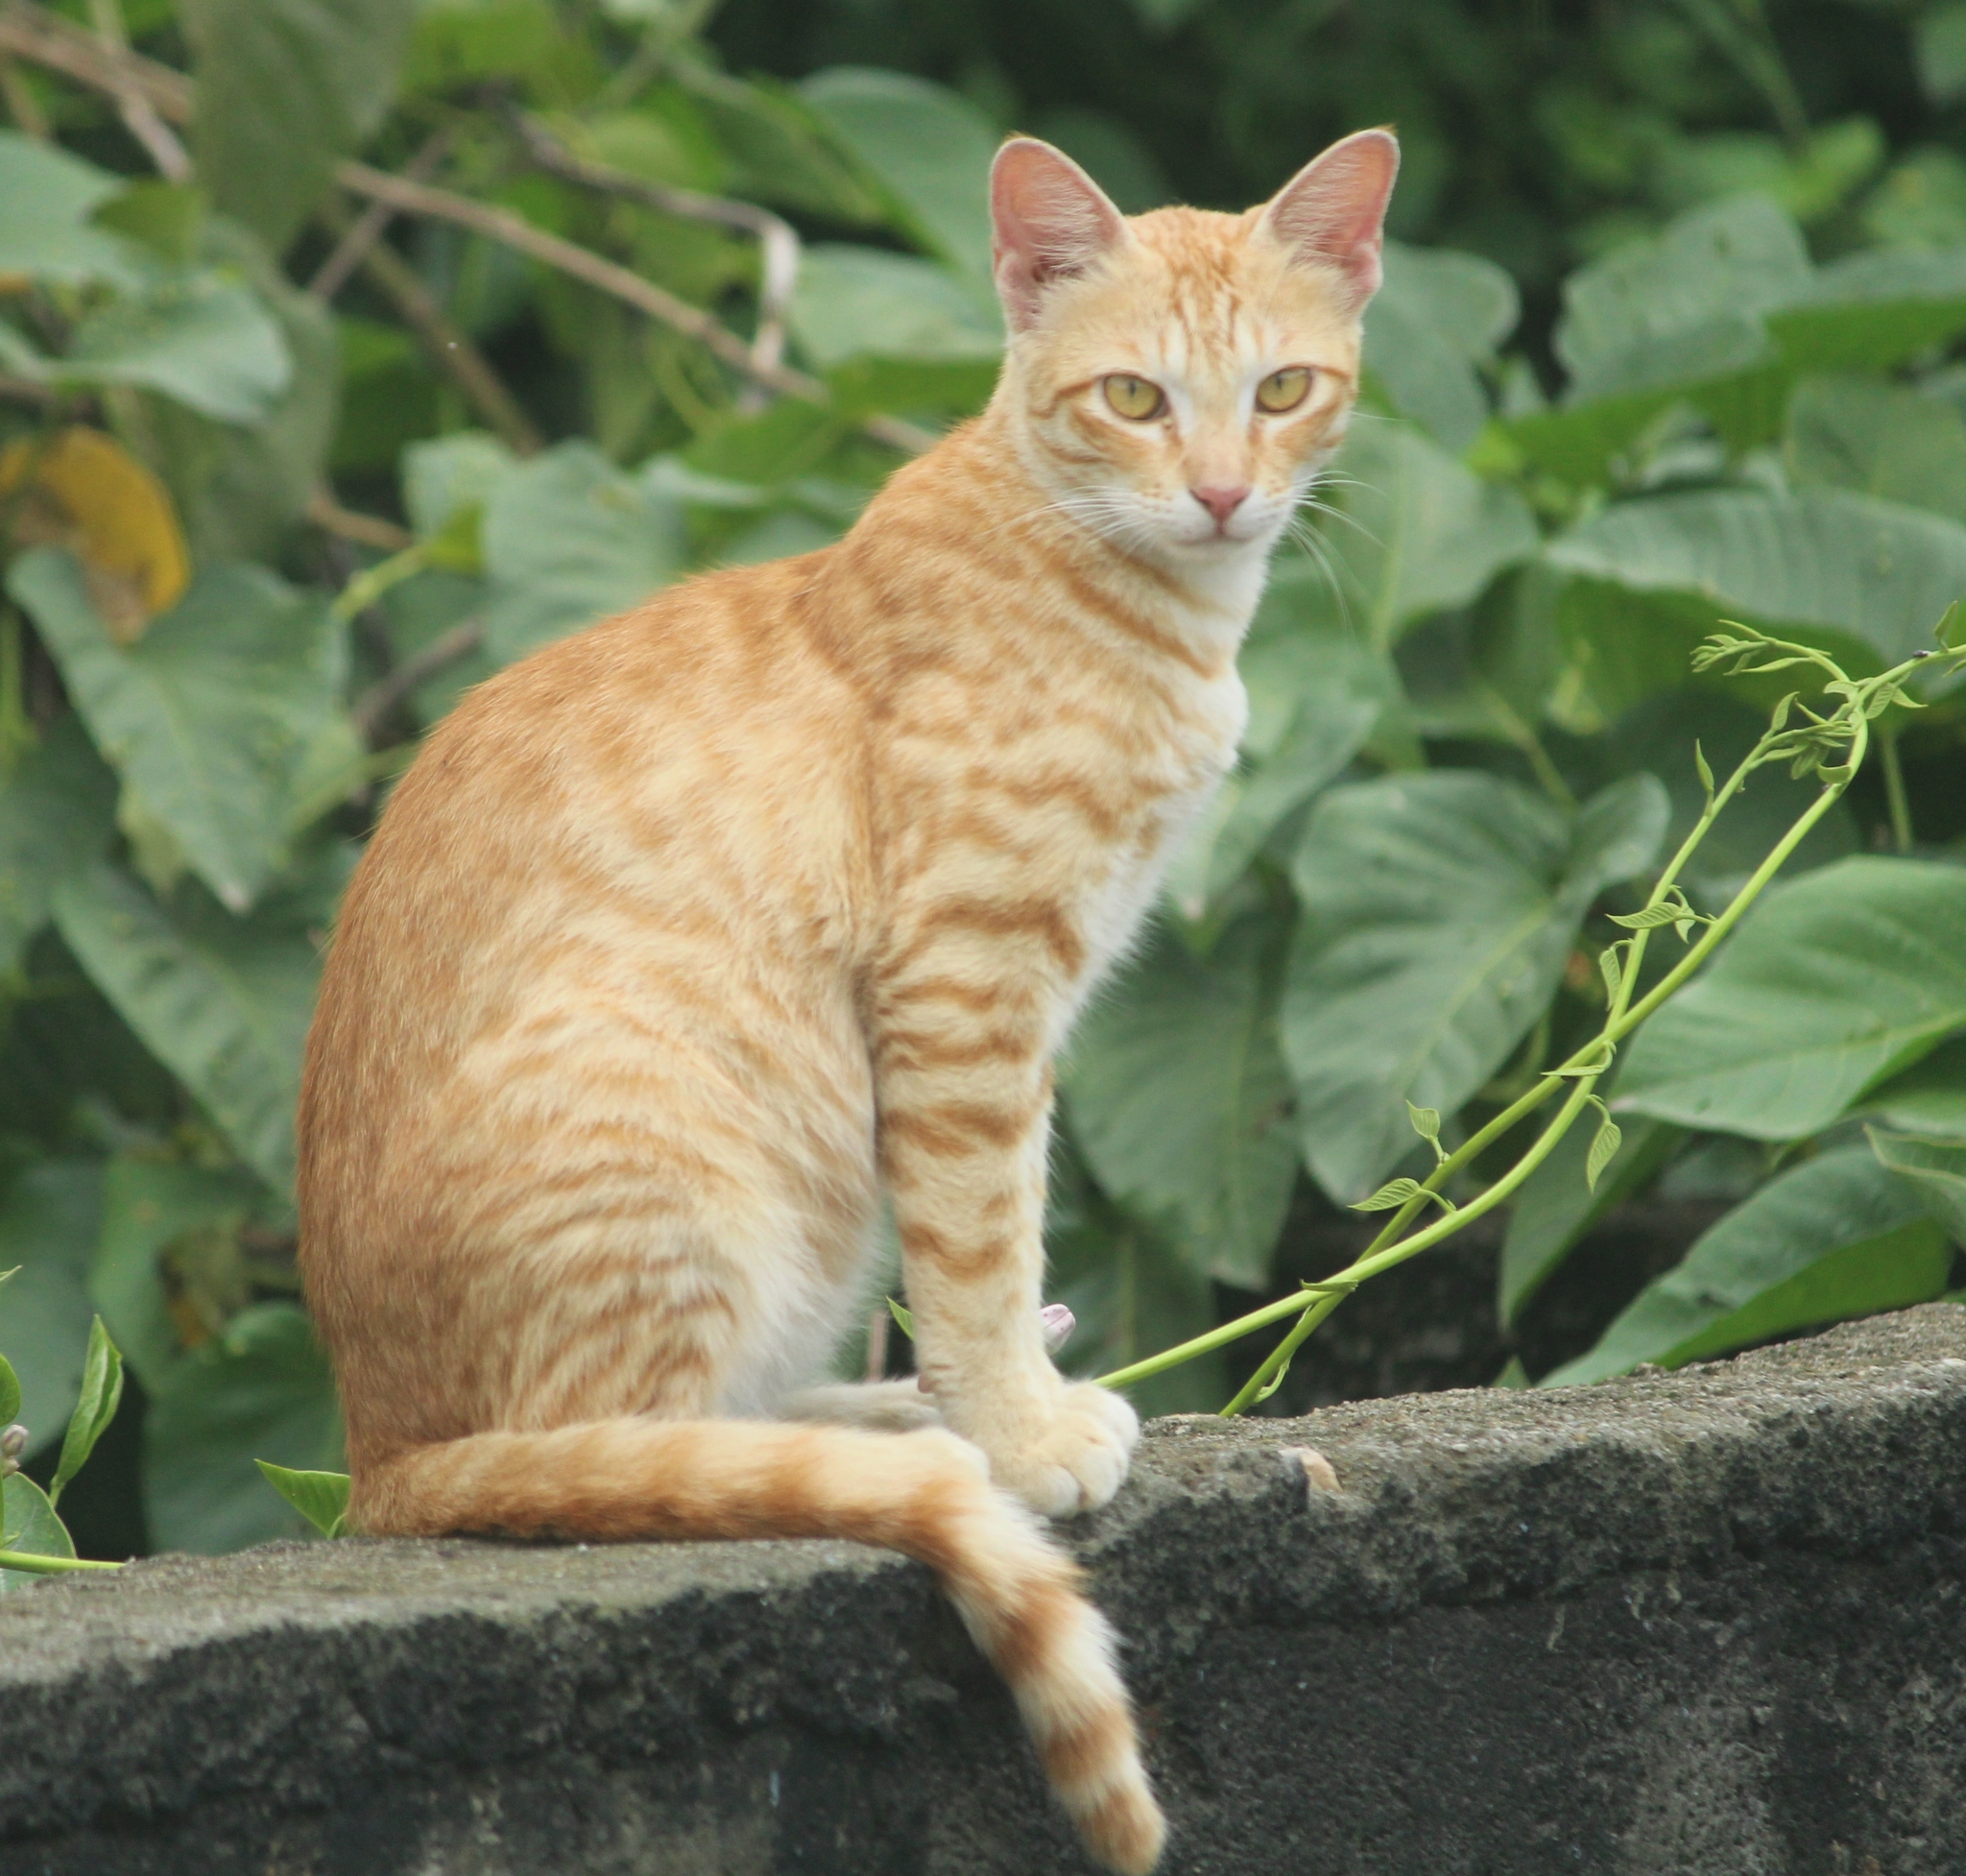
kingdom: Animalia
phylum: Chordata
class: Mammalia
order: Carnivora
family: Felidae
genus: Felis
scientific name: Felis catus
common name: Domestic cat
